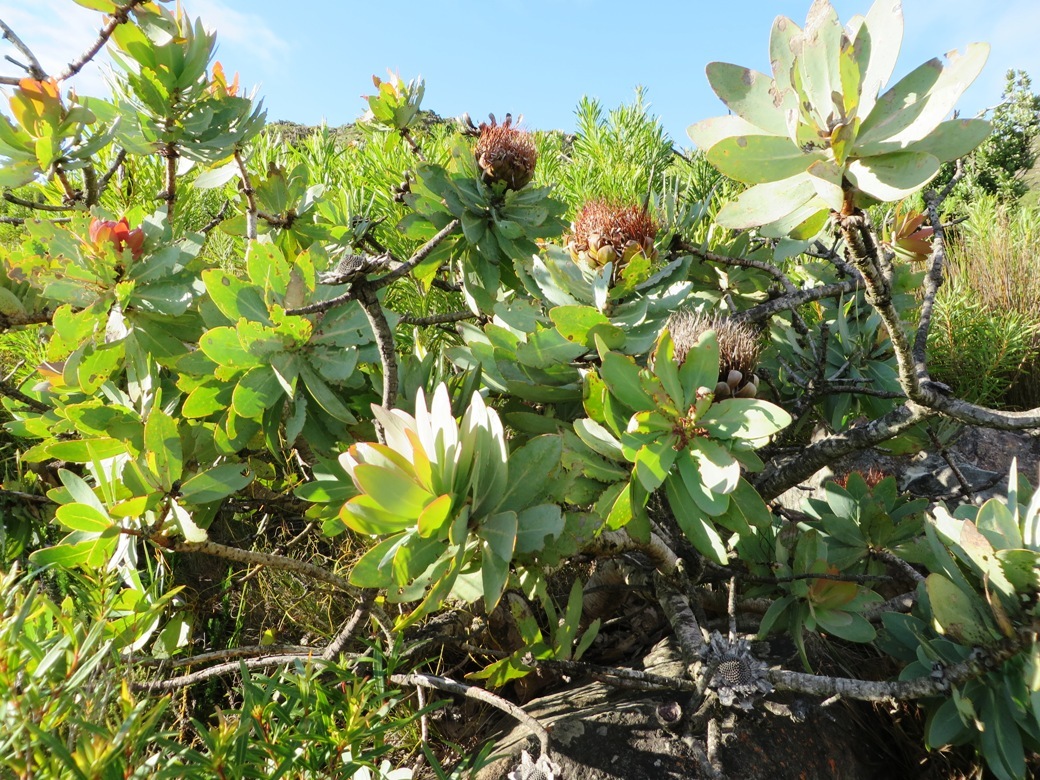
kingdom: Plantae
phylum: Tracheophyta
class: Magnoliopsida
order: Proteales
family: Proteaceae
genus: Protea
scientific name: Protea nitida
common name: Tree protea
